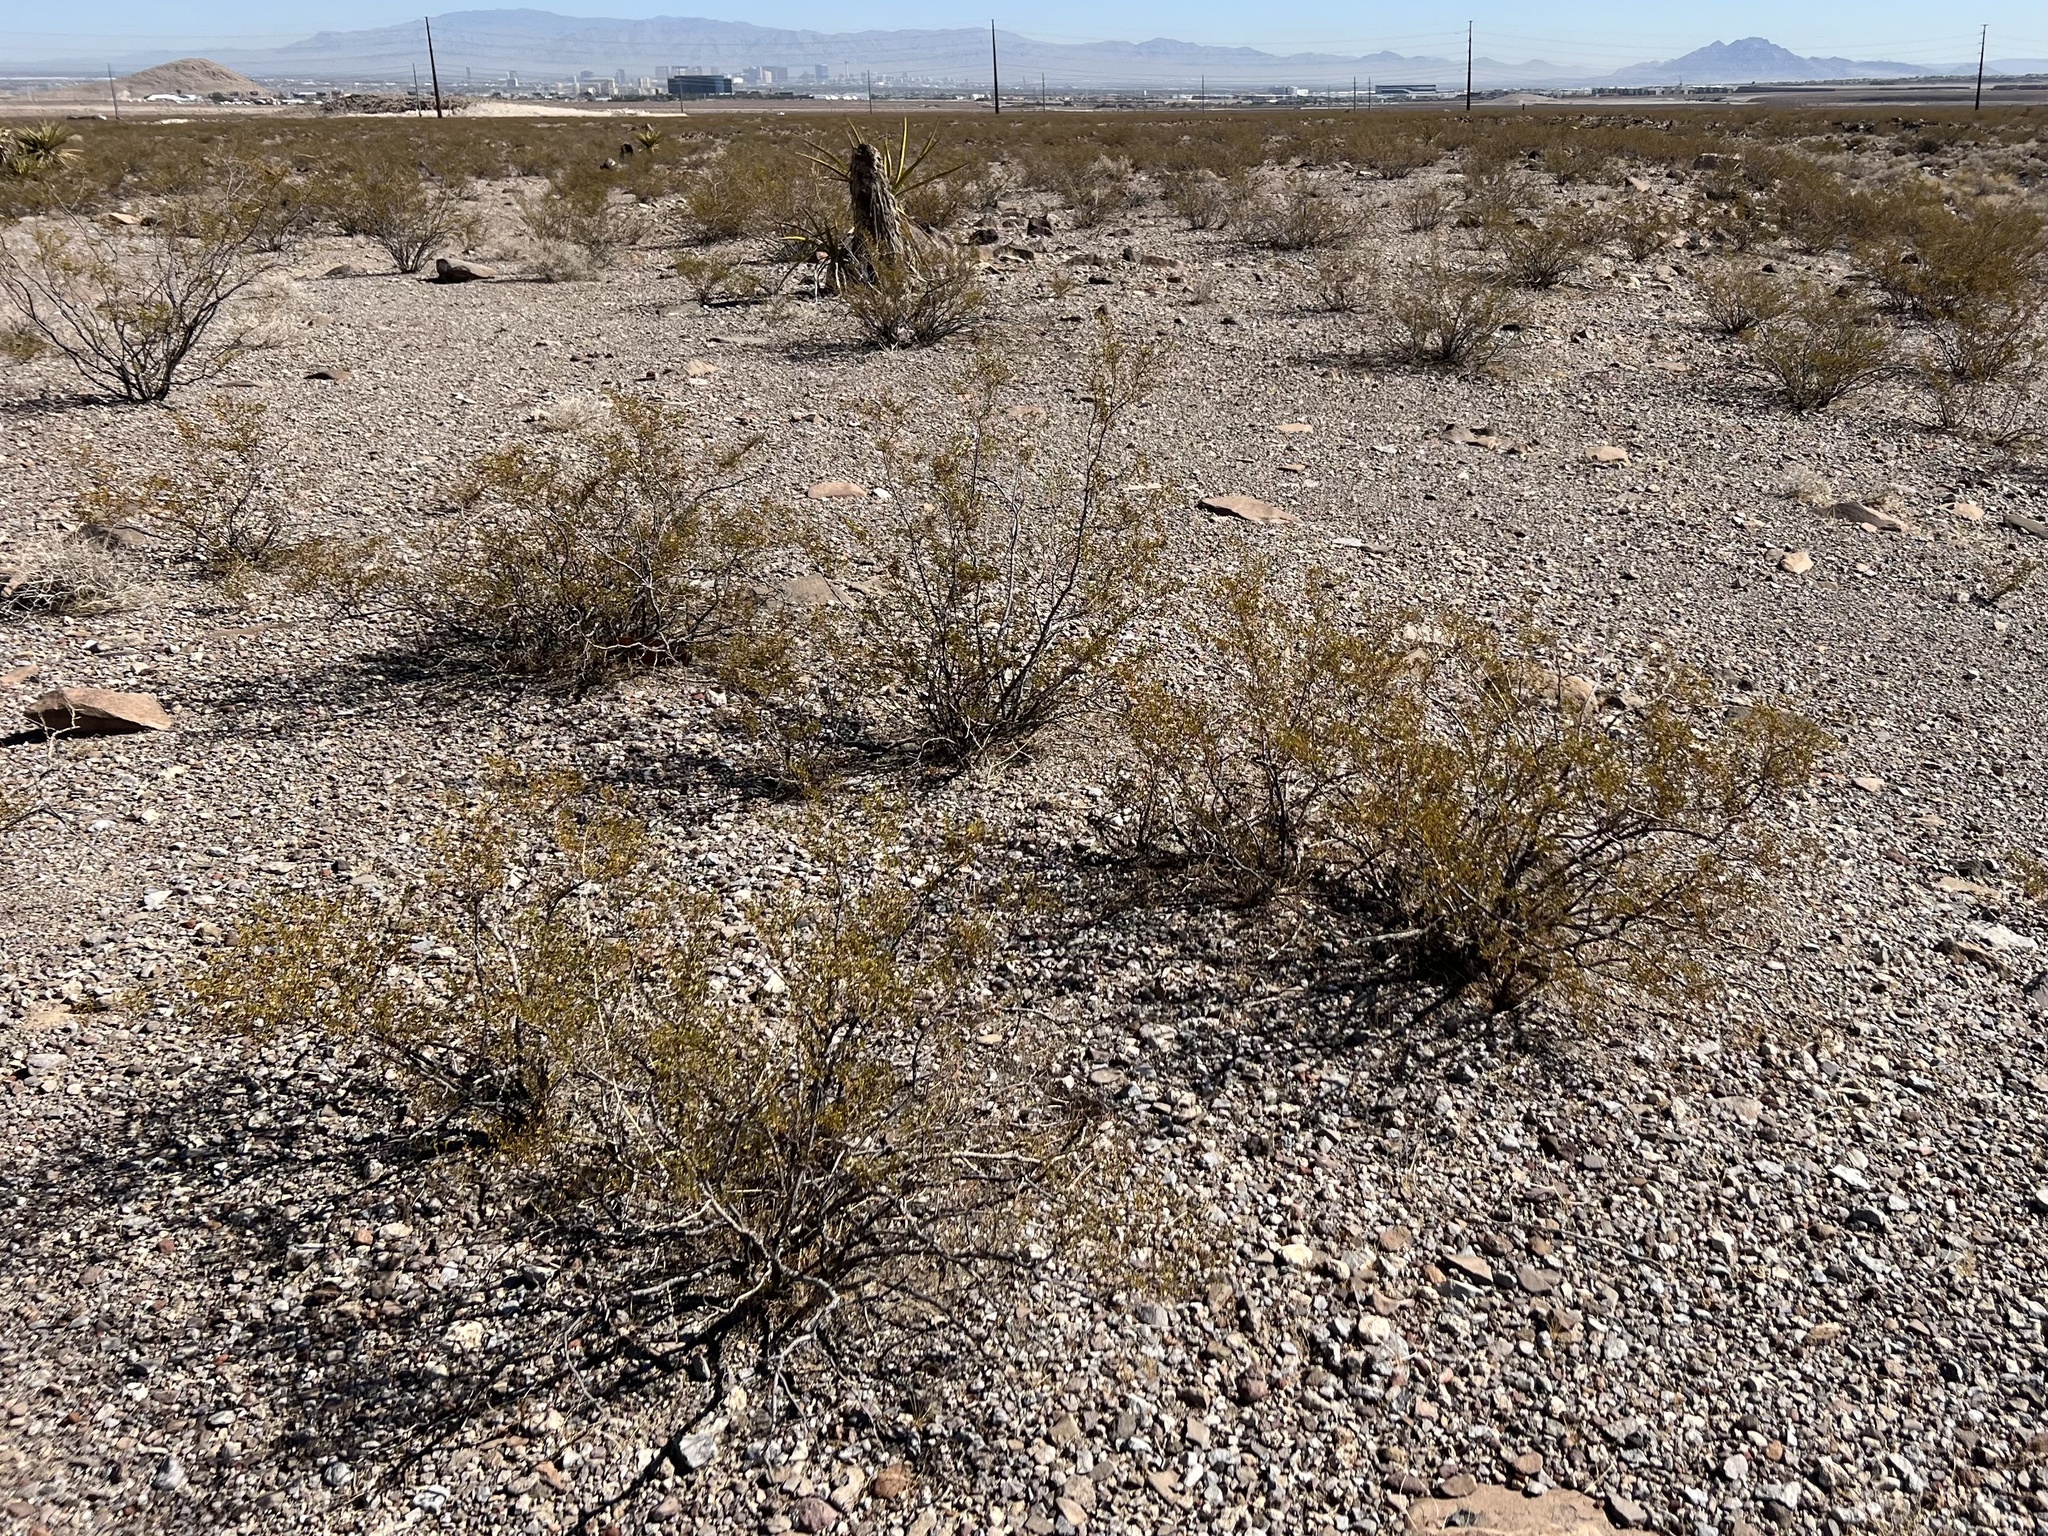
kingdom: Plantae
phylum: Tracheophyta
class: Magnoliopsida
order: Zygophyllales
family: Zygophyllaceae
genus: Larrea
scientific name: Larrea tridentata
